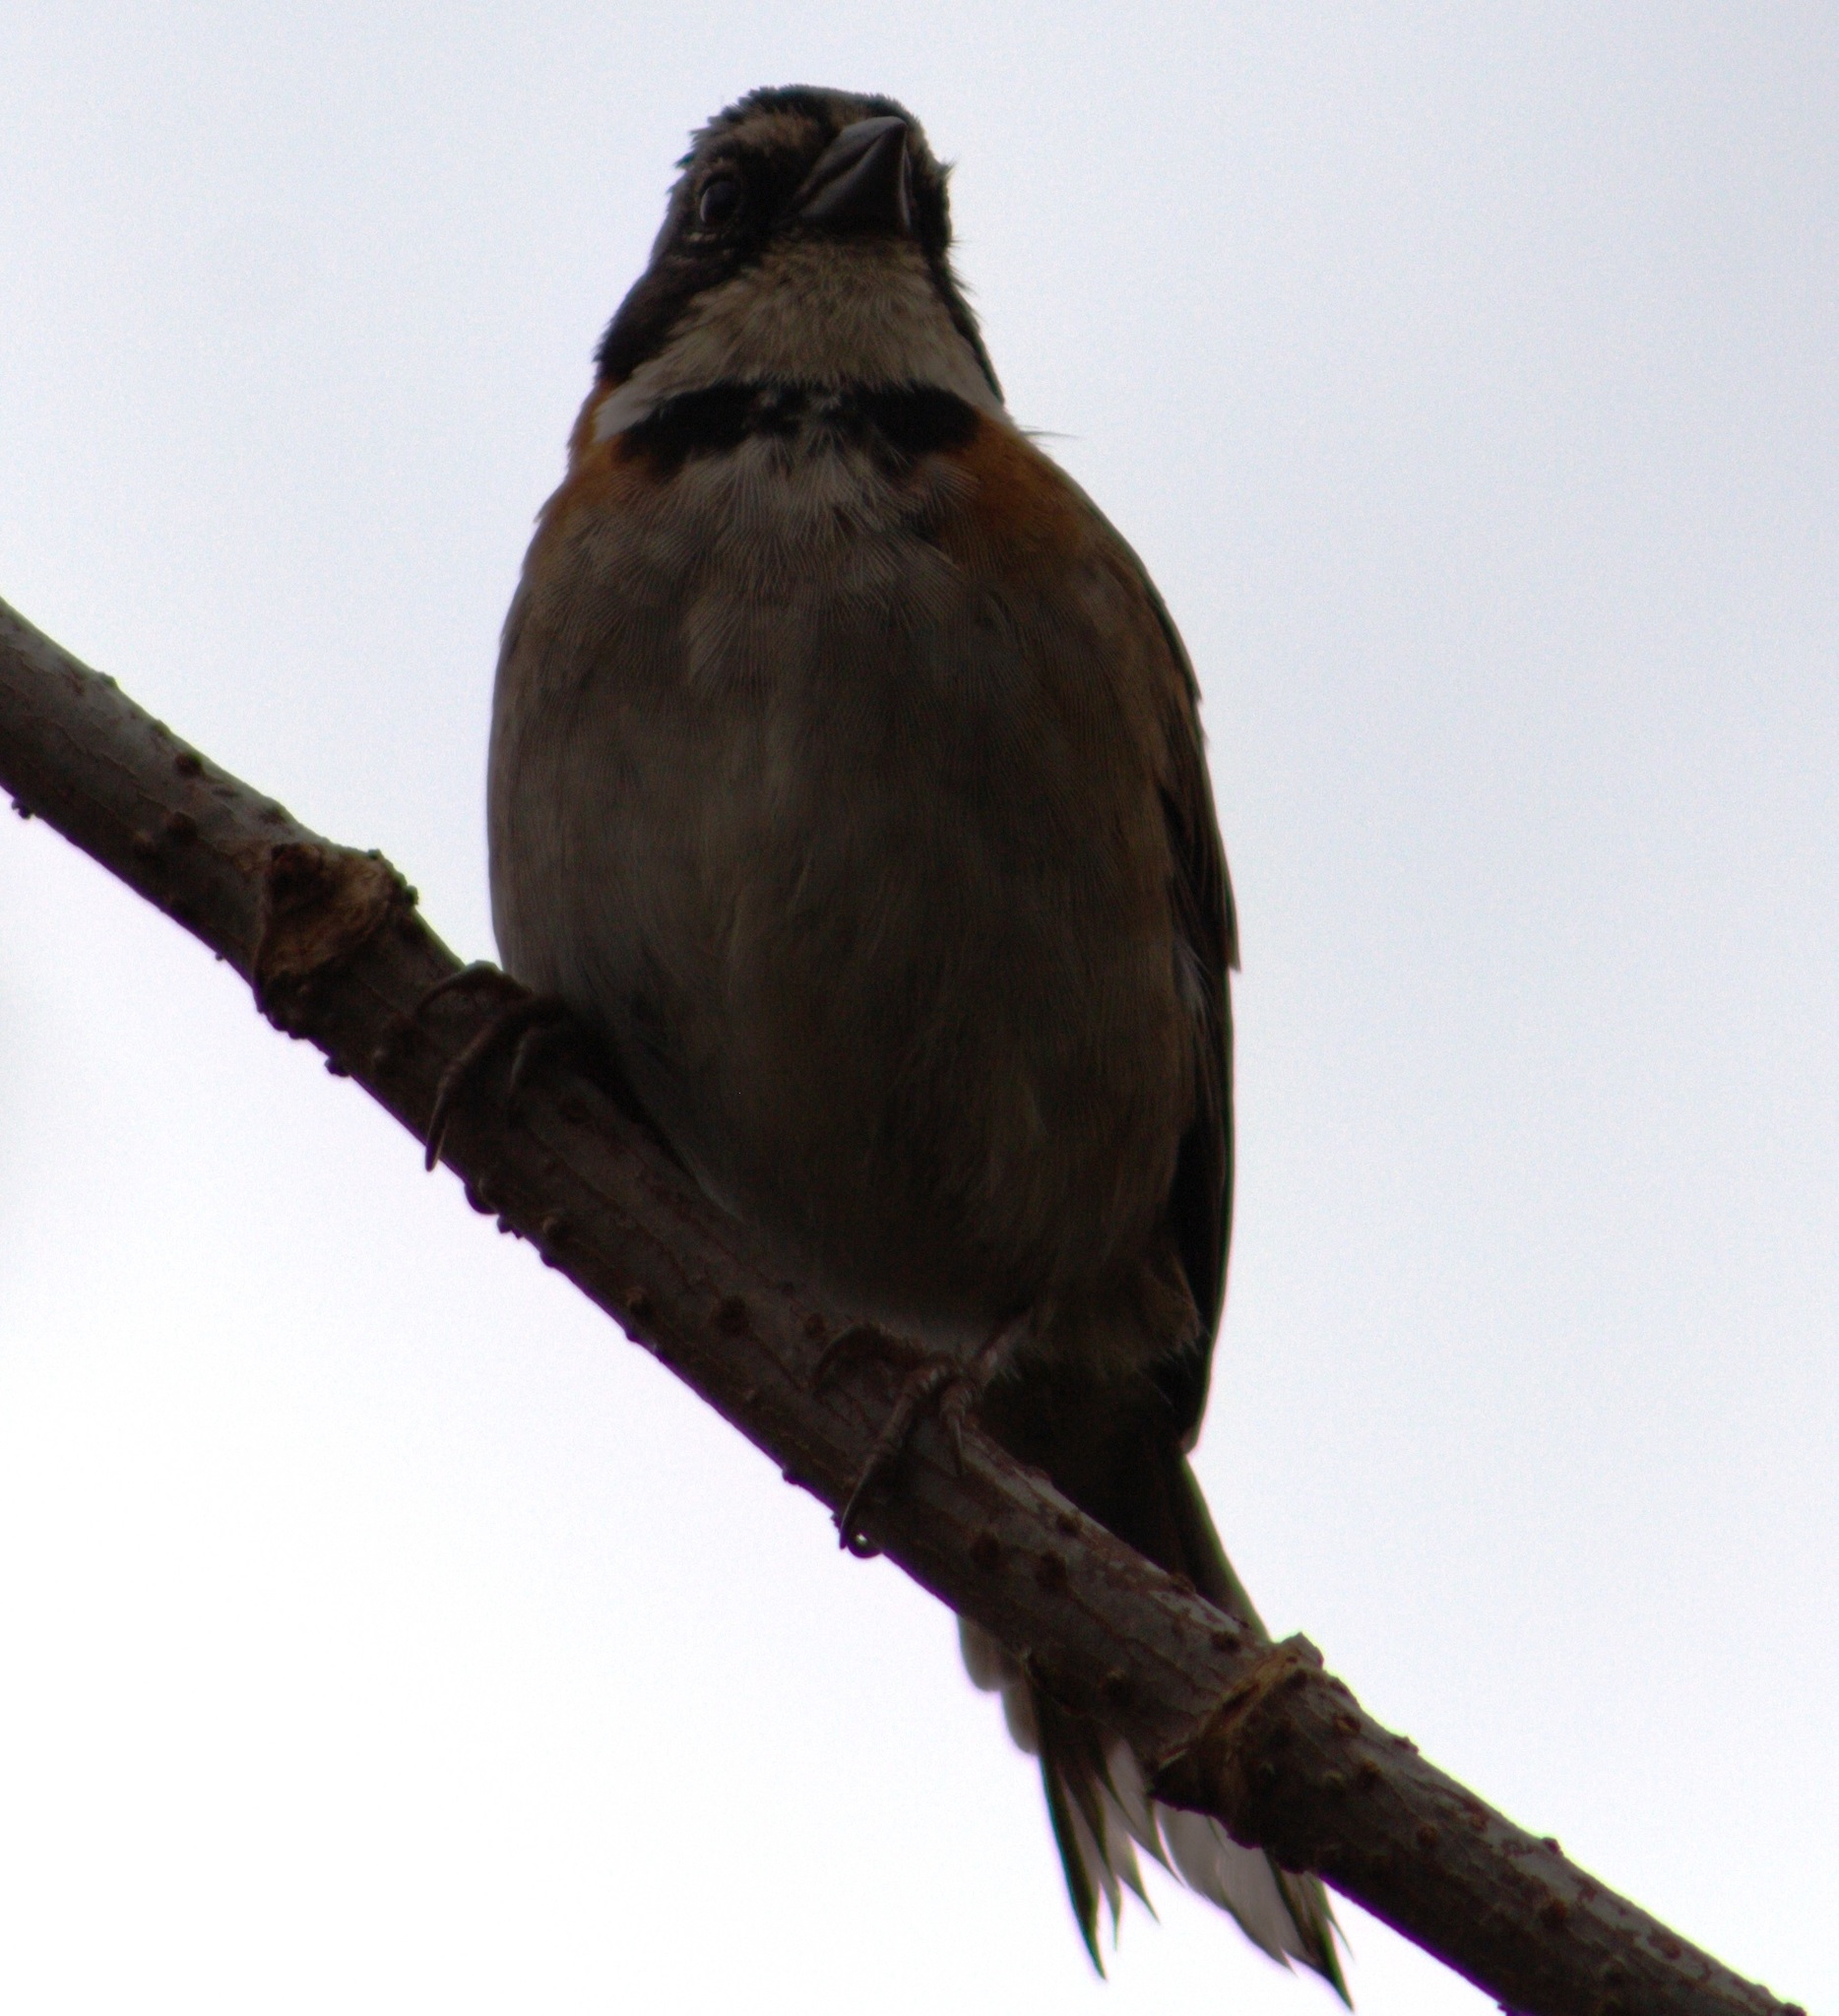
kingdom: Animalia
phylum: Chordata
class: Aves
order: Passeriformes
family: Passerellidae
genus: Zonotrichia
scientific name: Zonotrichia capensis
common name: Rufous-collared sparrow
